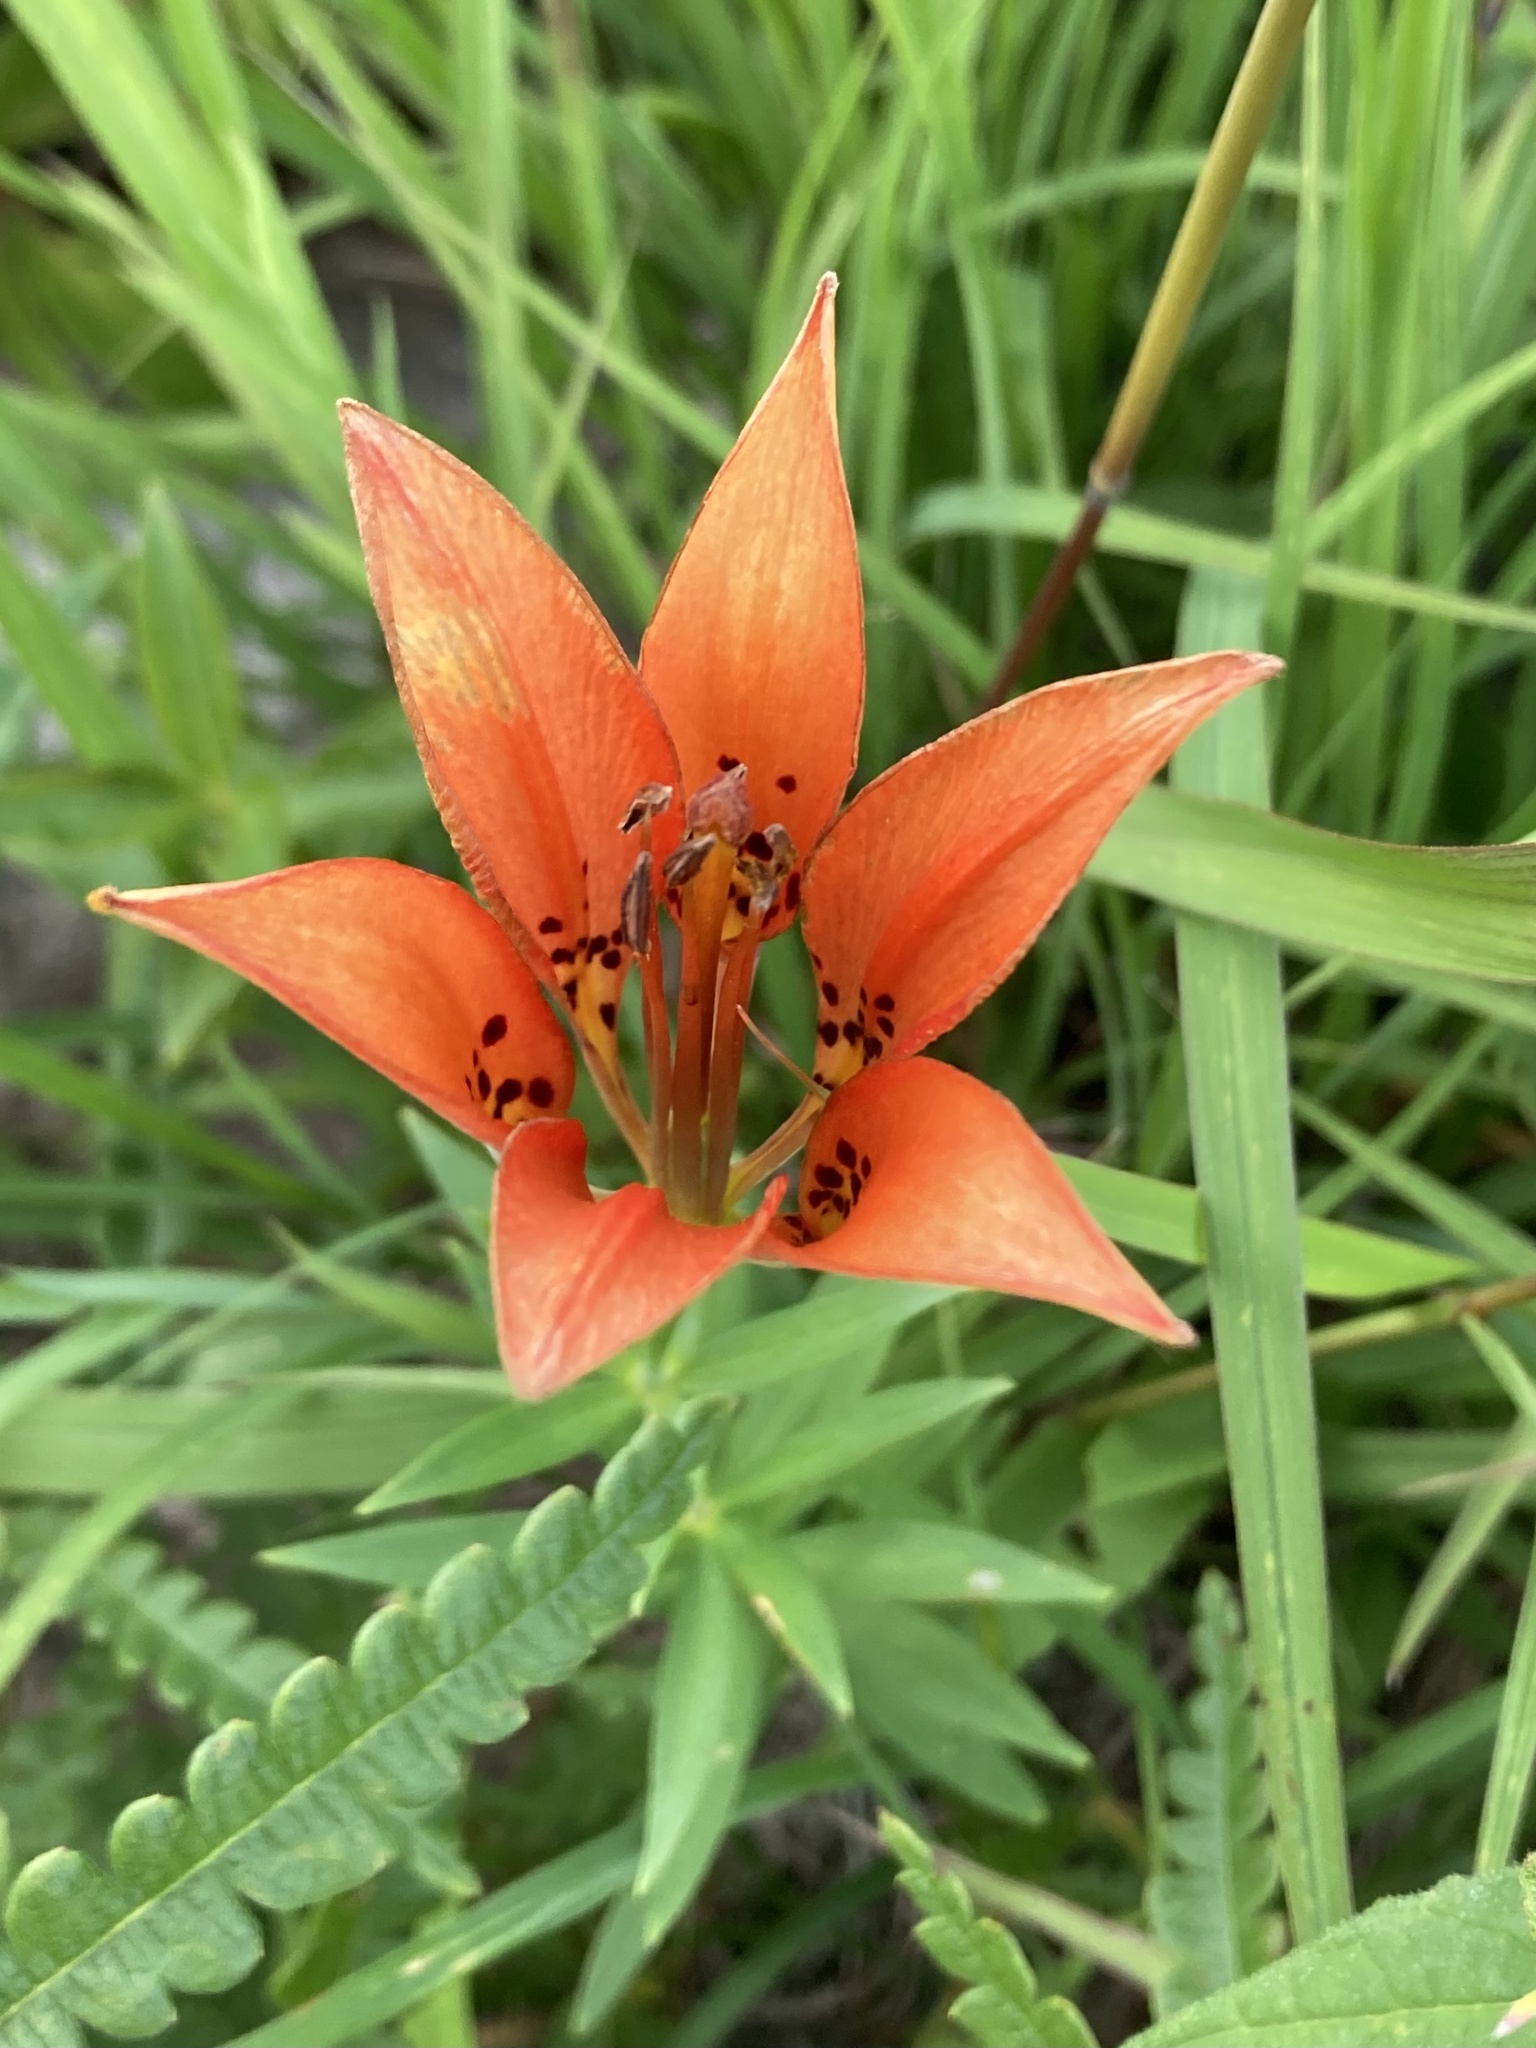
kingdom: Plantae
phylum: Tracheophyta
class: Liliopsida
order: Liliales
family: Liliaceae
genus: Lilium
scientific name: Lilium philadelphicum
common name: Red lily
